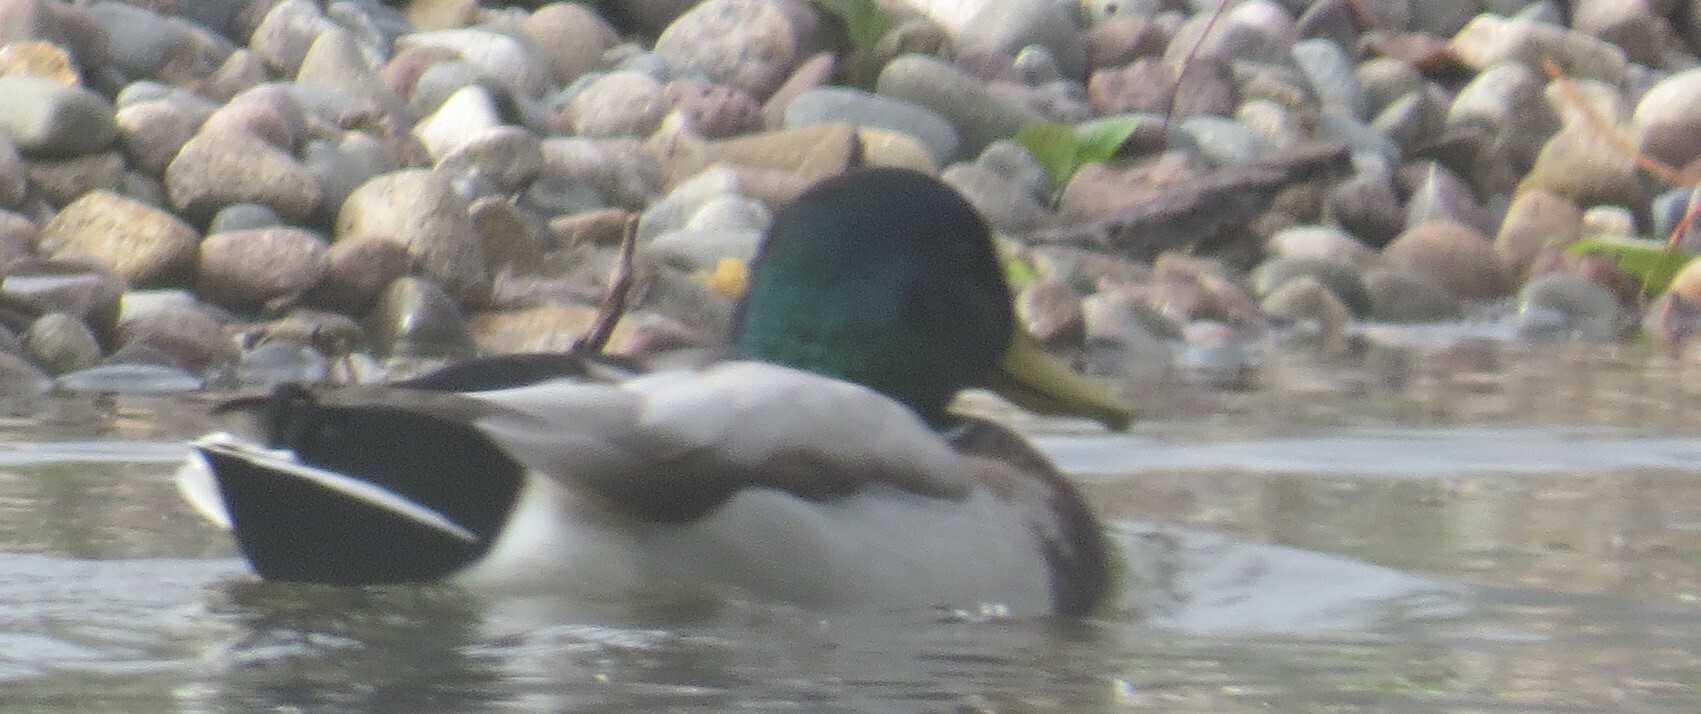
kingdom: Animalia
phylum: Chordata
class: Aves
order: Anseriformes
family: Anatidae
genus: Anas
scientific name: Anas platyrhynchos
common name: Mallard
